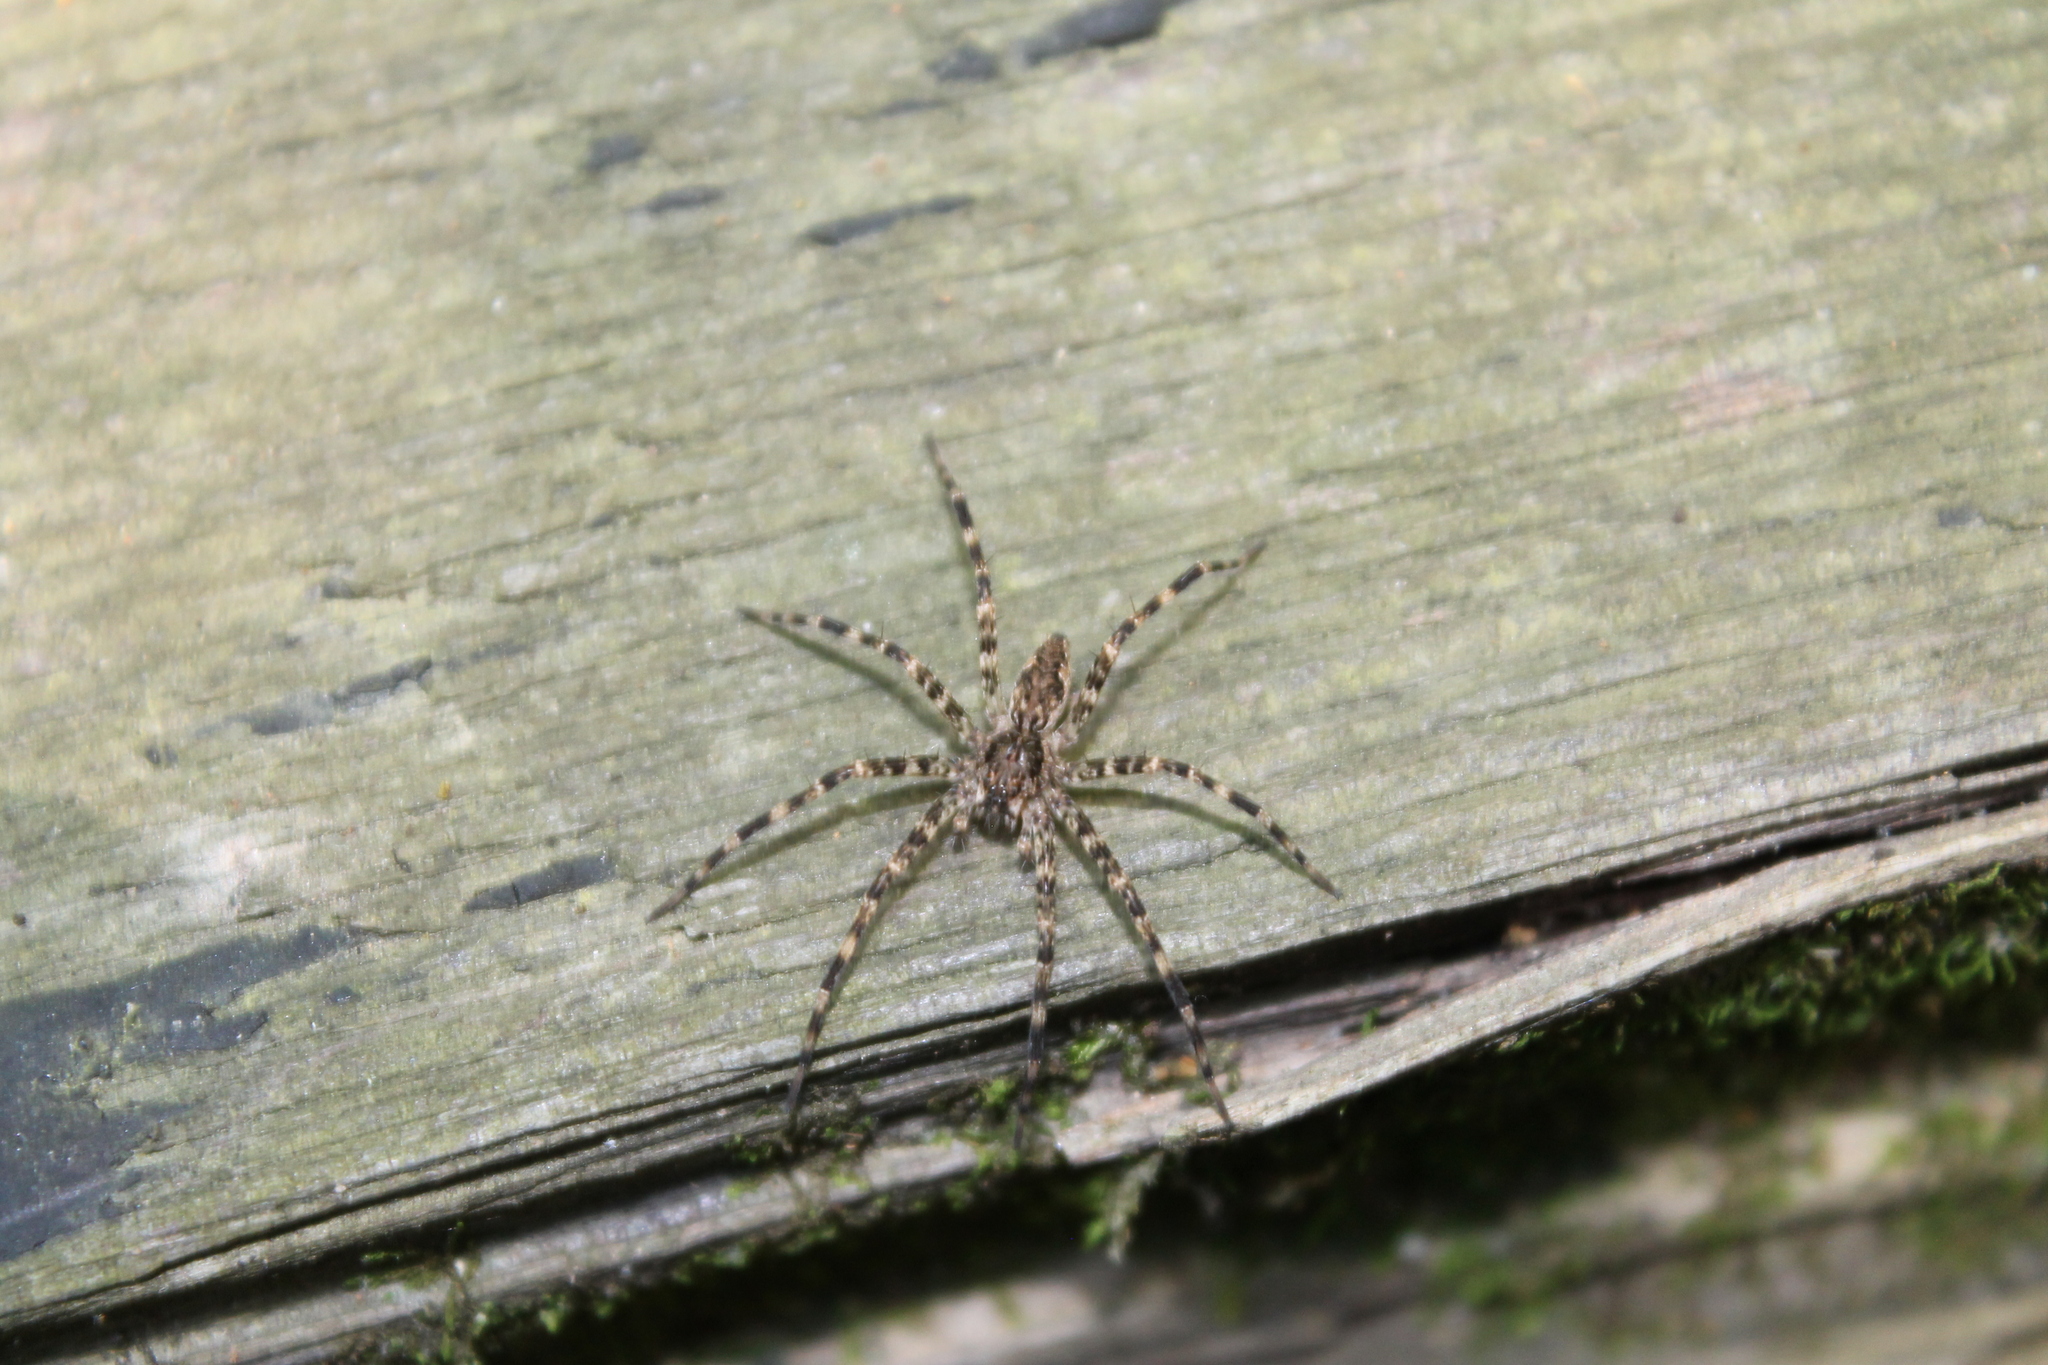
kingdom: Animalia
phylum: Arthropoda
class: Arachnida
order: Araneae
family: Pisauridae
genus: Dolomedes
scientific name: Dolomedes tenebrosus
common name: Dark fishing spider
